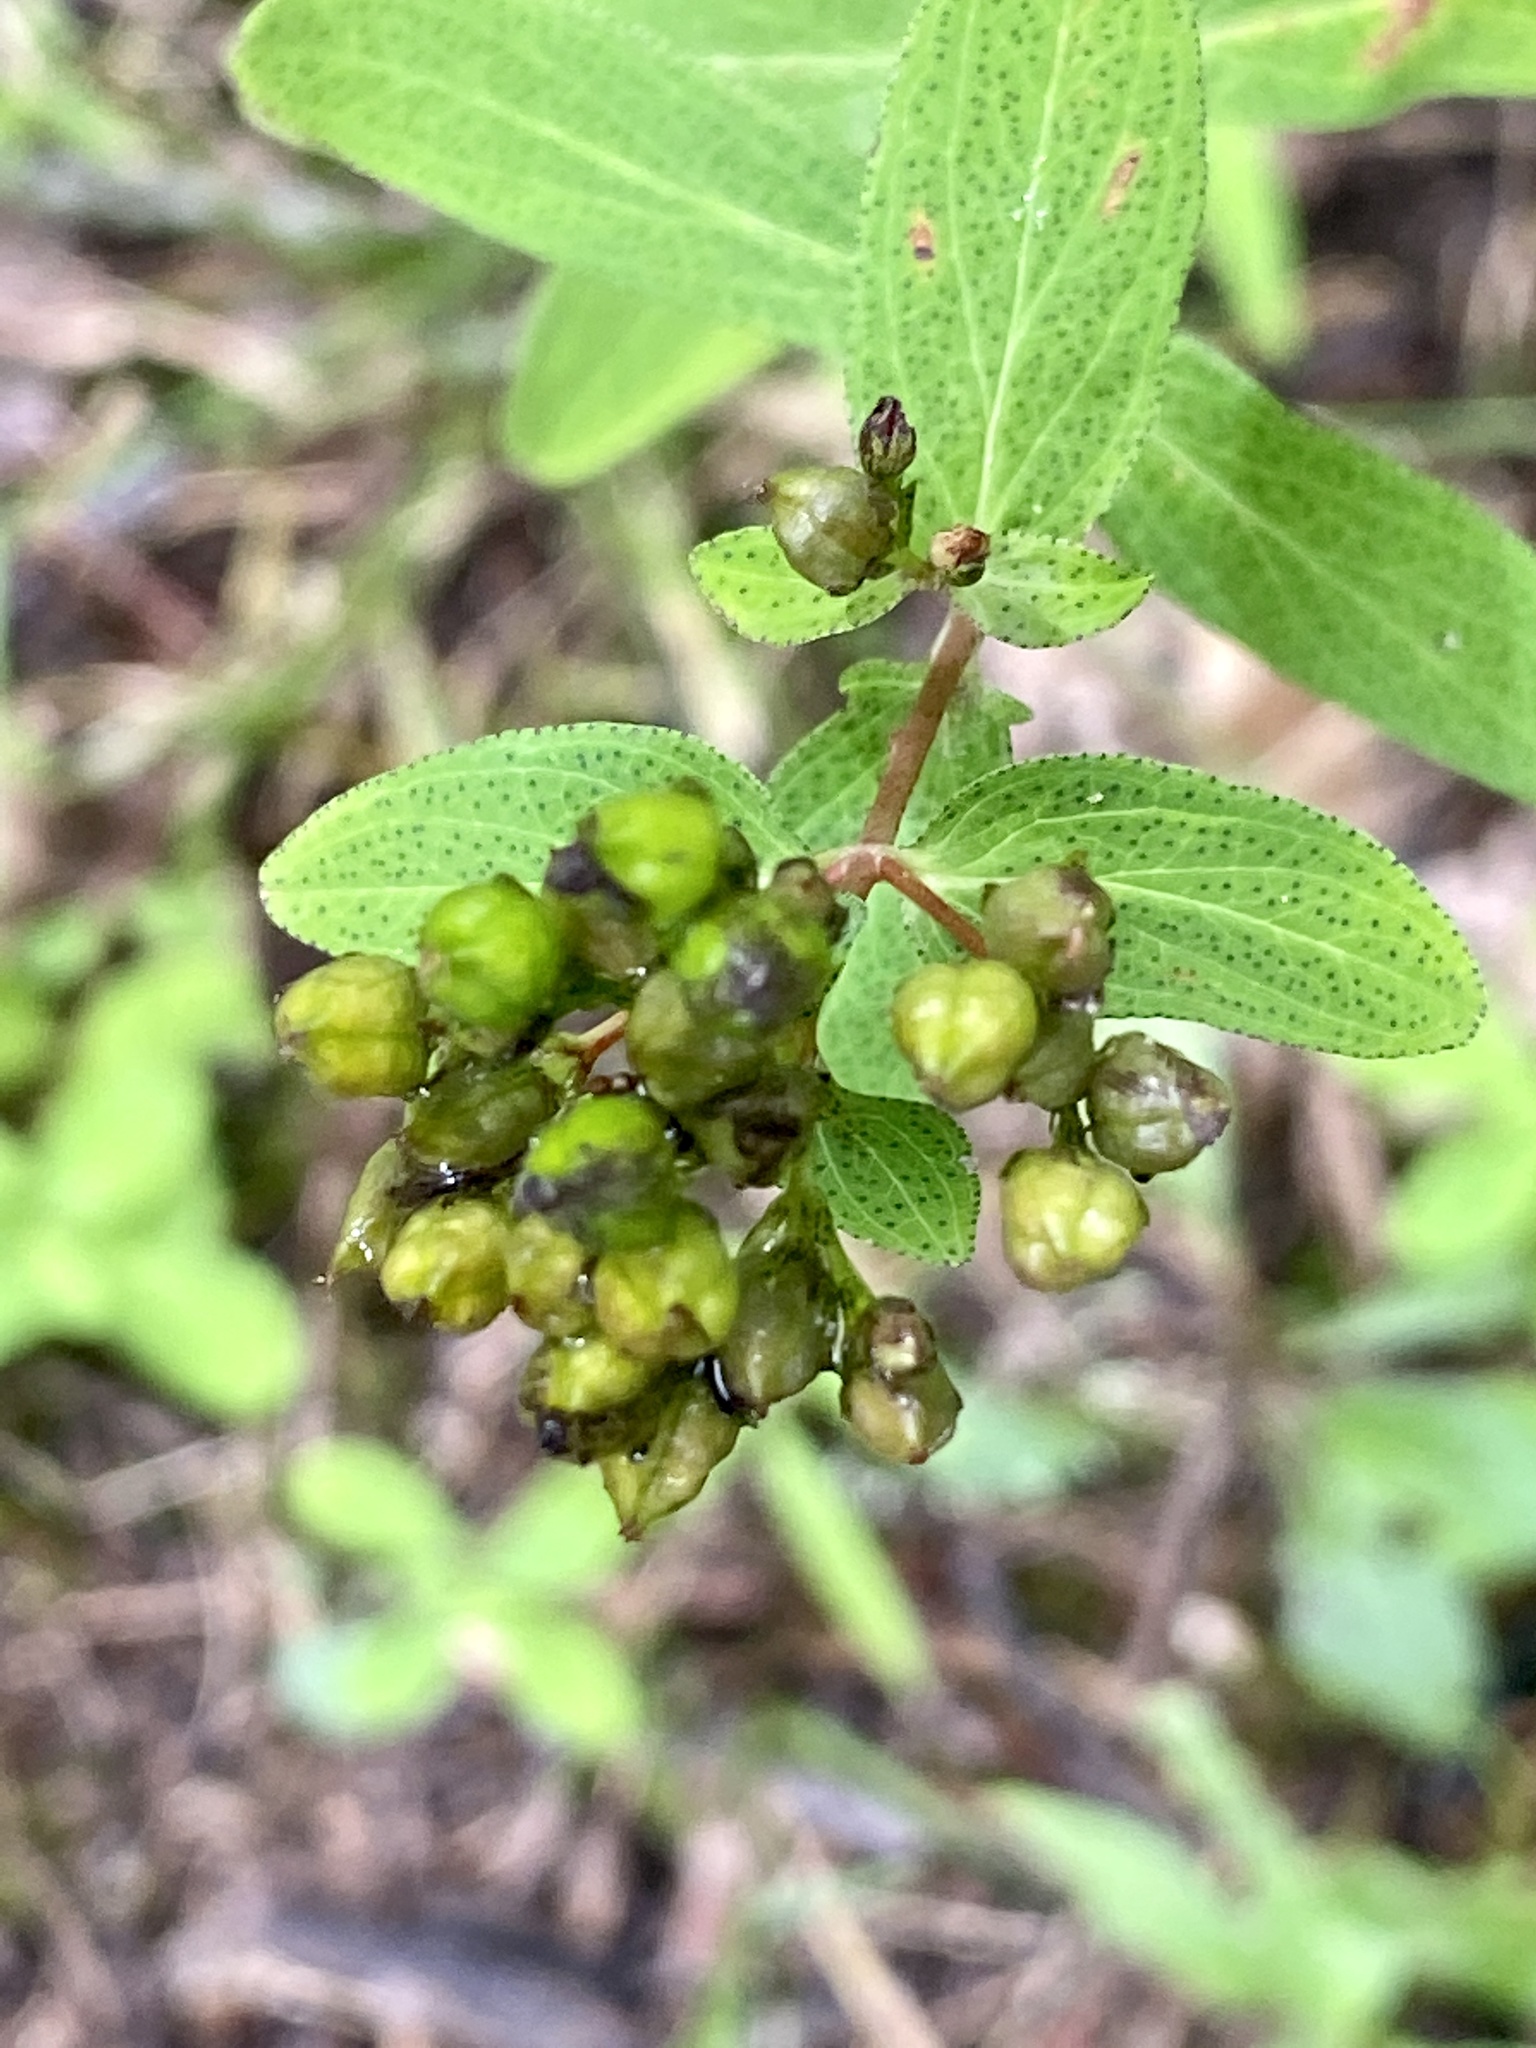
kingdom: Plantae
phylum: Tracheophyta
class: Magnoliopsida
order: Malpighiales
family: Hypericaceae
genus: Hypericum
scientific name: Hypericum punctatum
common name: Spotted st. john's-wort
